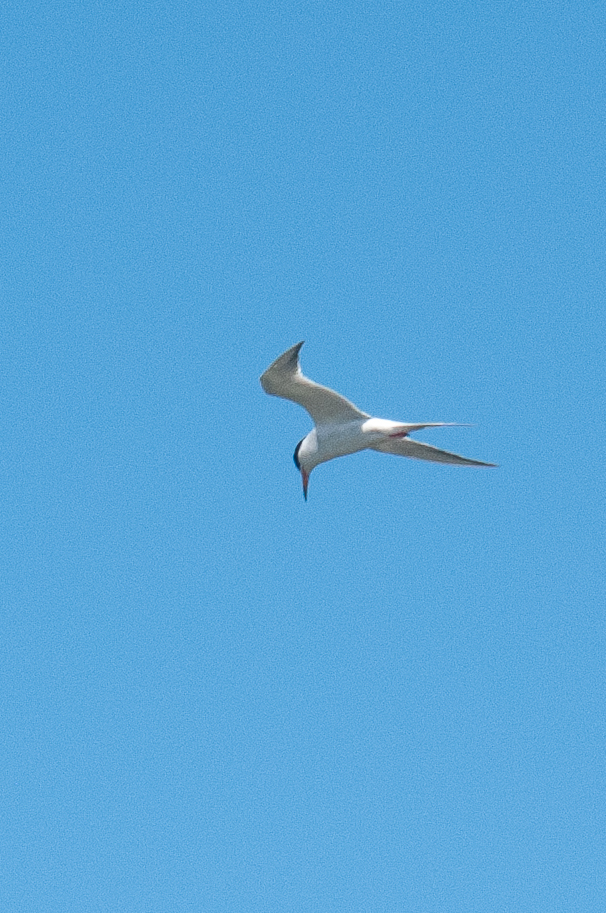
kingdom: Animalia
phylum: Chordata
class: Aves
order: Charadriiformes
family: Laridae
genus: Sterna
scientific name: Sterna forsteri
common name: Forster's tern
